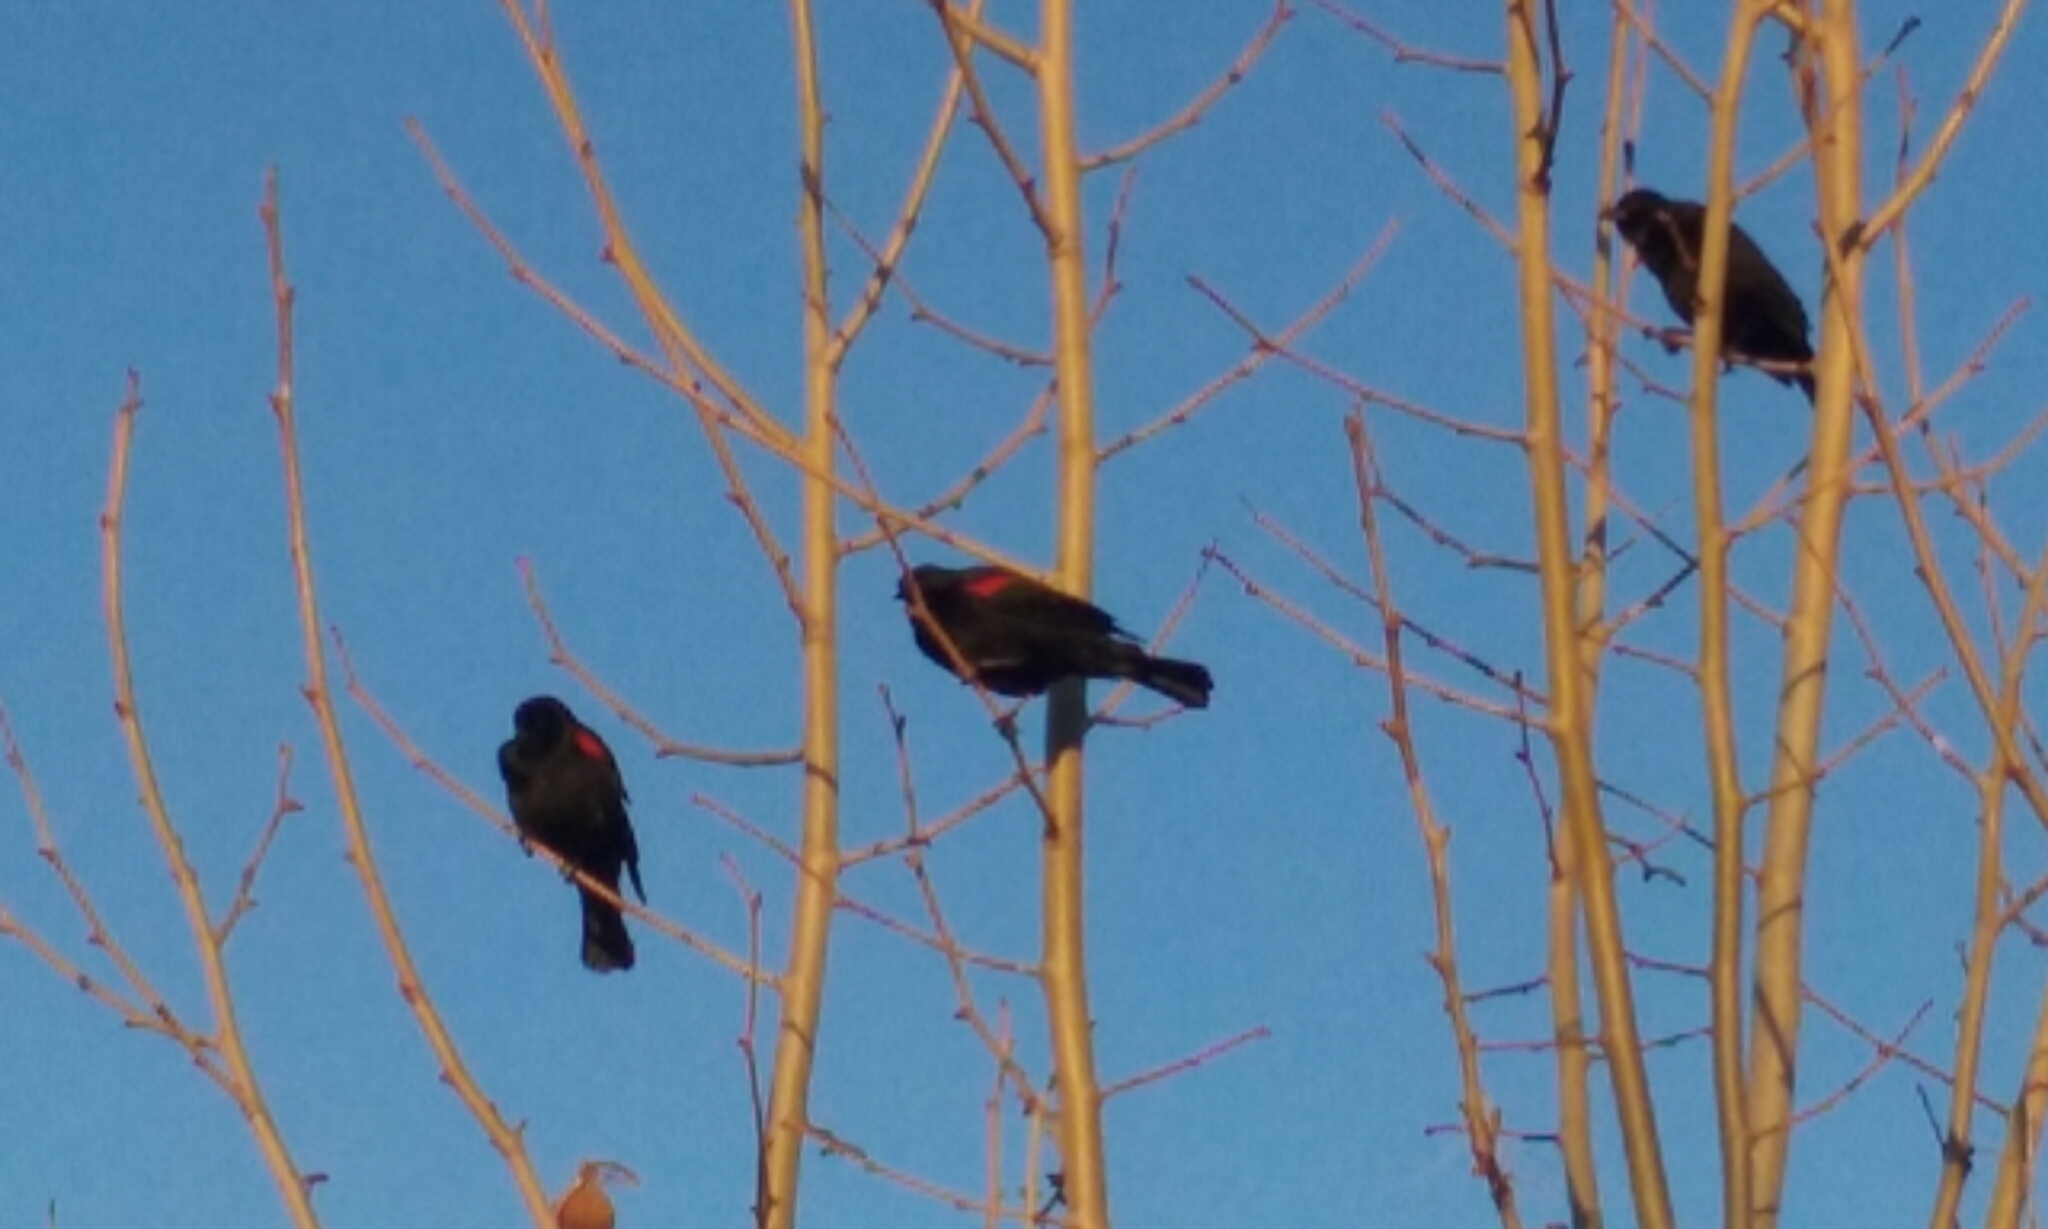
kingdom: Animalia
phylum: Chordata
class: Aves
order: Passeriformes
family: Icteridae
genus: Agelaius
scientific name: Agelaius phoeniceus
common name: Red-winged blackbird
